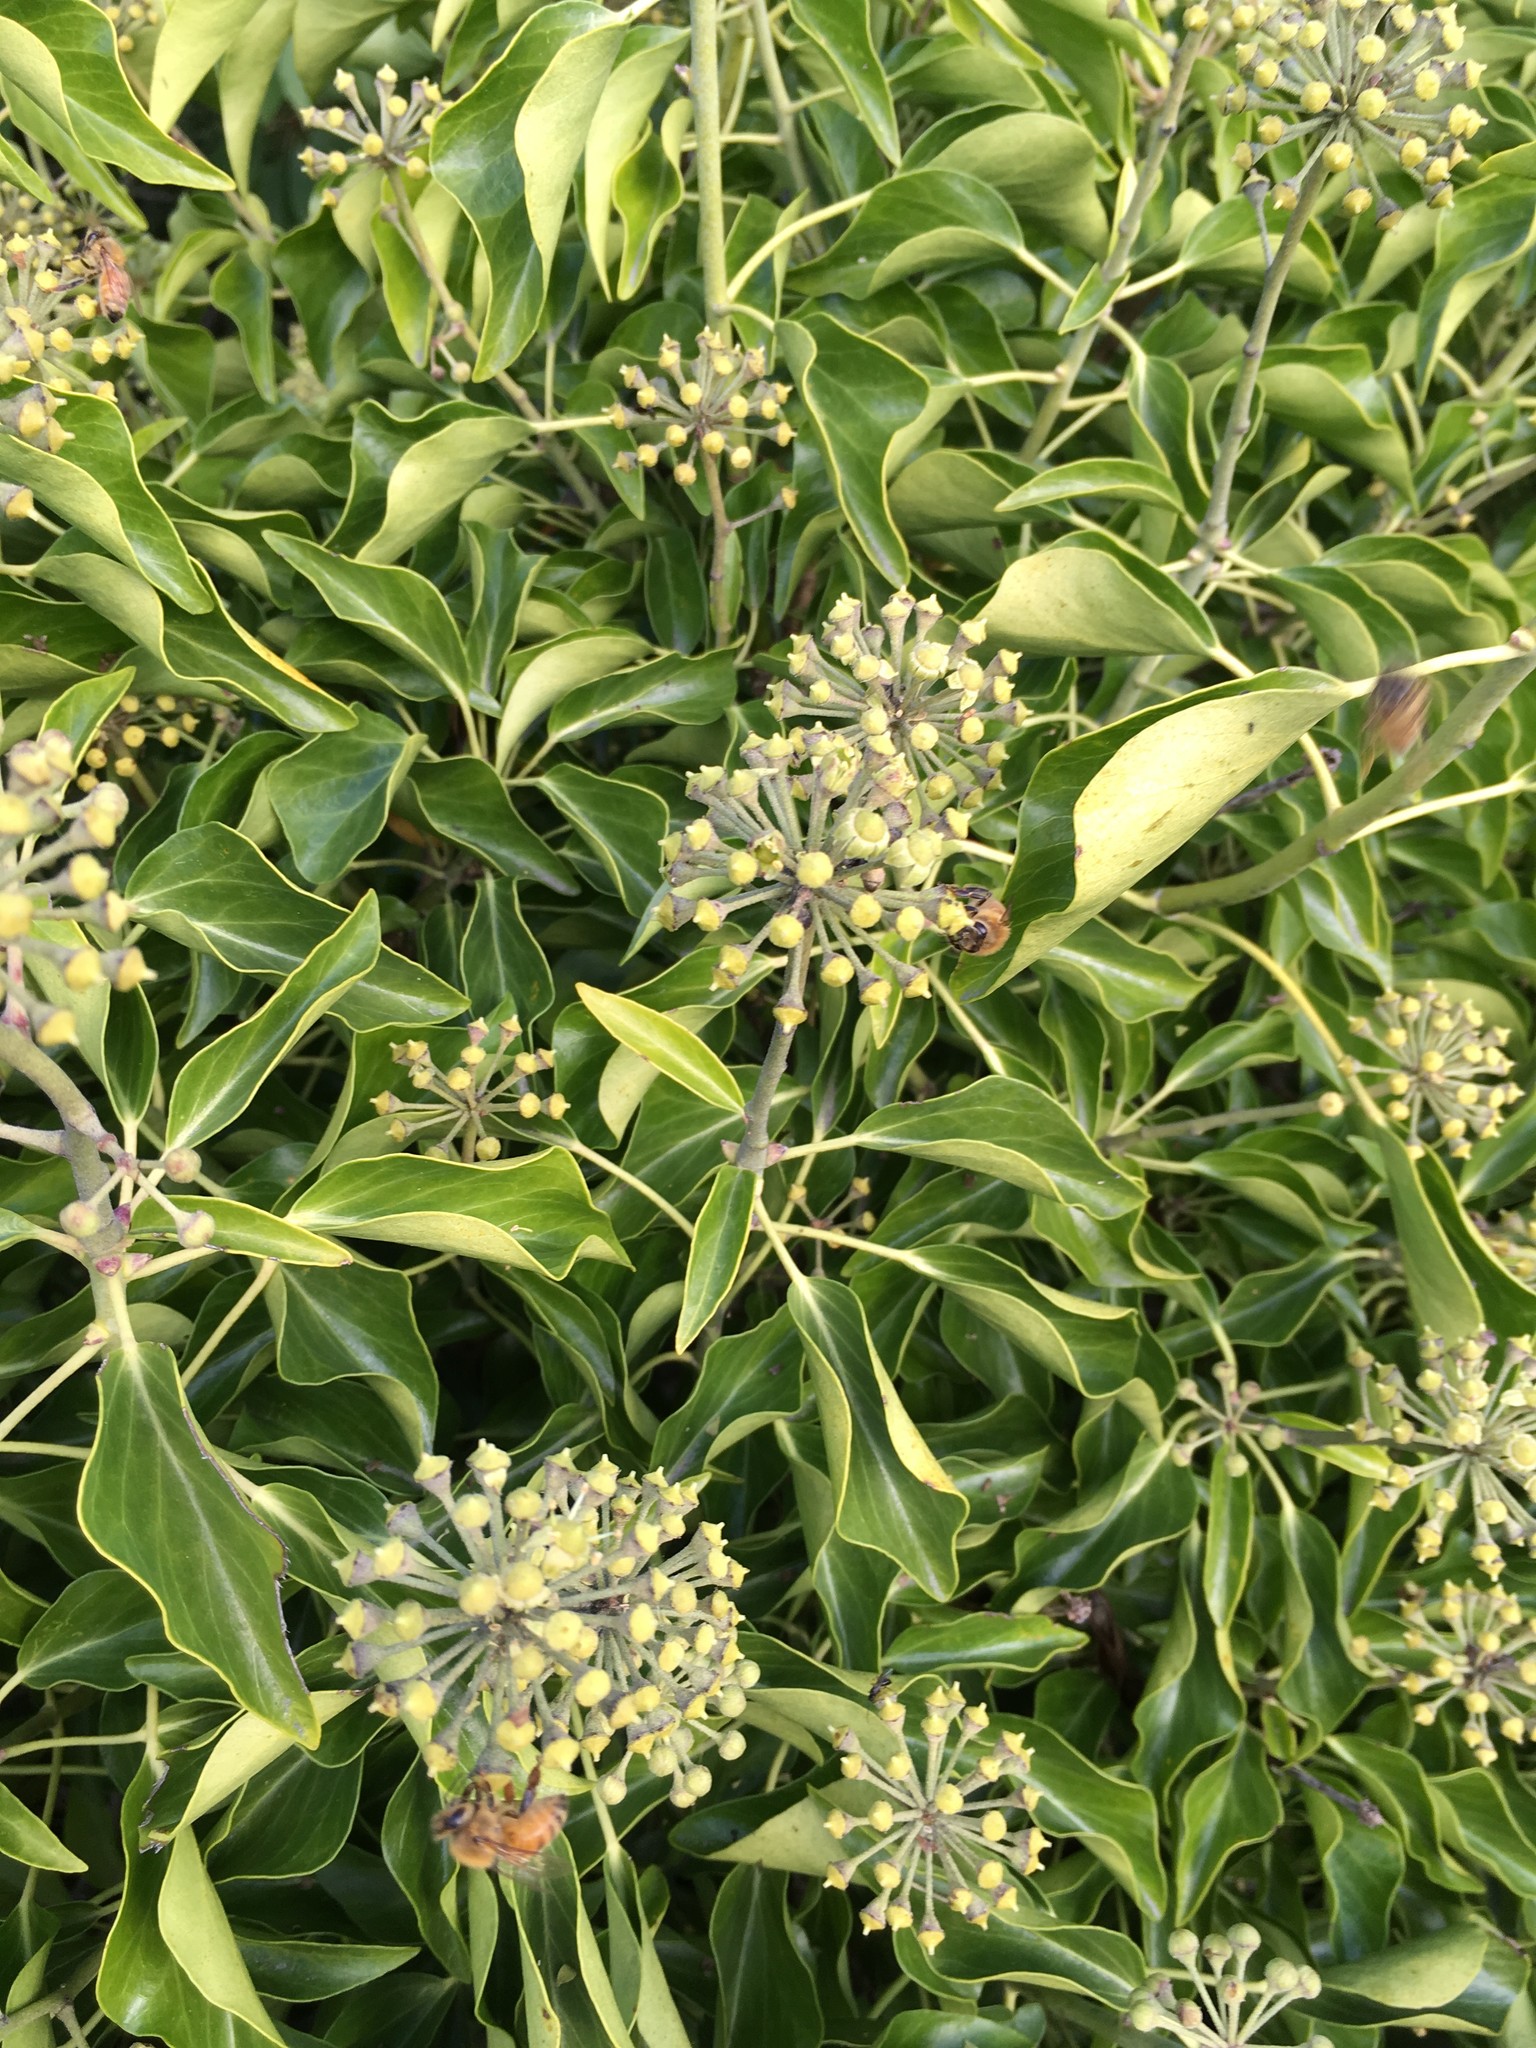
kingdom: Plantae
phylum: Tracheophyta
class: Magnoliopsida
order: Apiales
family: Araliaceae
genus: Hedera
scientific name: Hedera helix
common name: Ivy
